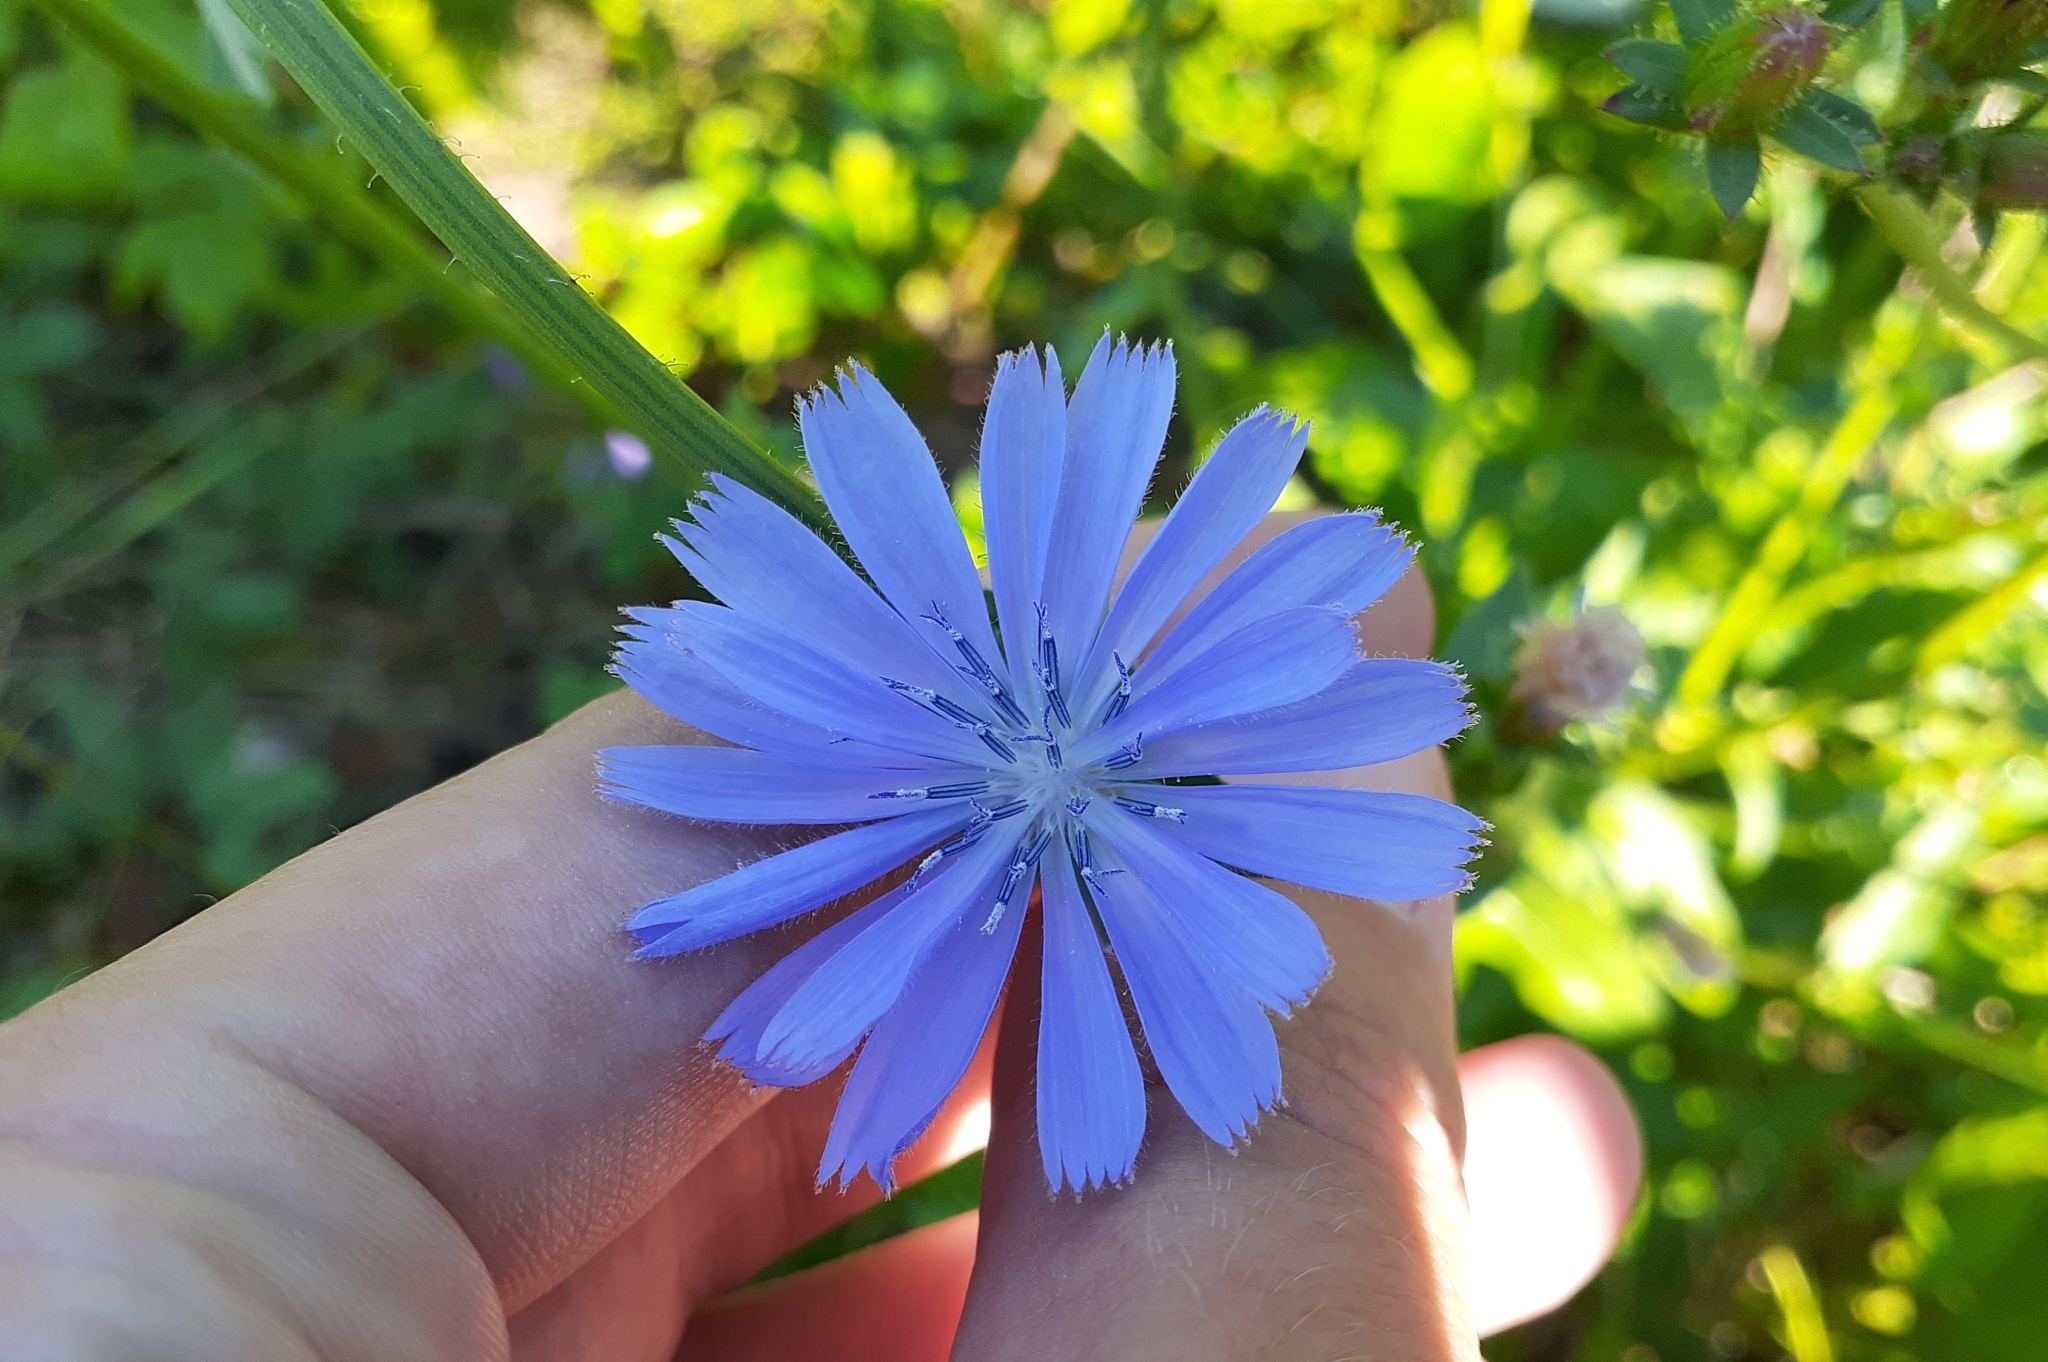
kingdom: Plantae
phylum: Tracheophyta
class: Magnoliopsida
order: Asterales
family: Asteraceae
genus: Cichorium
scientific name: Cichorium intybus
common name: Chicory
